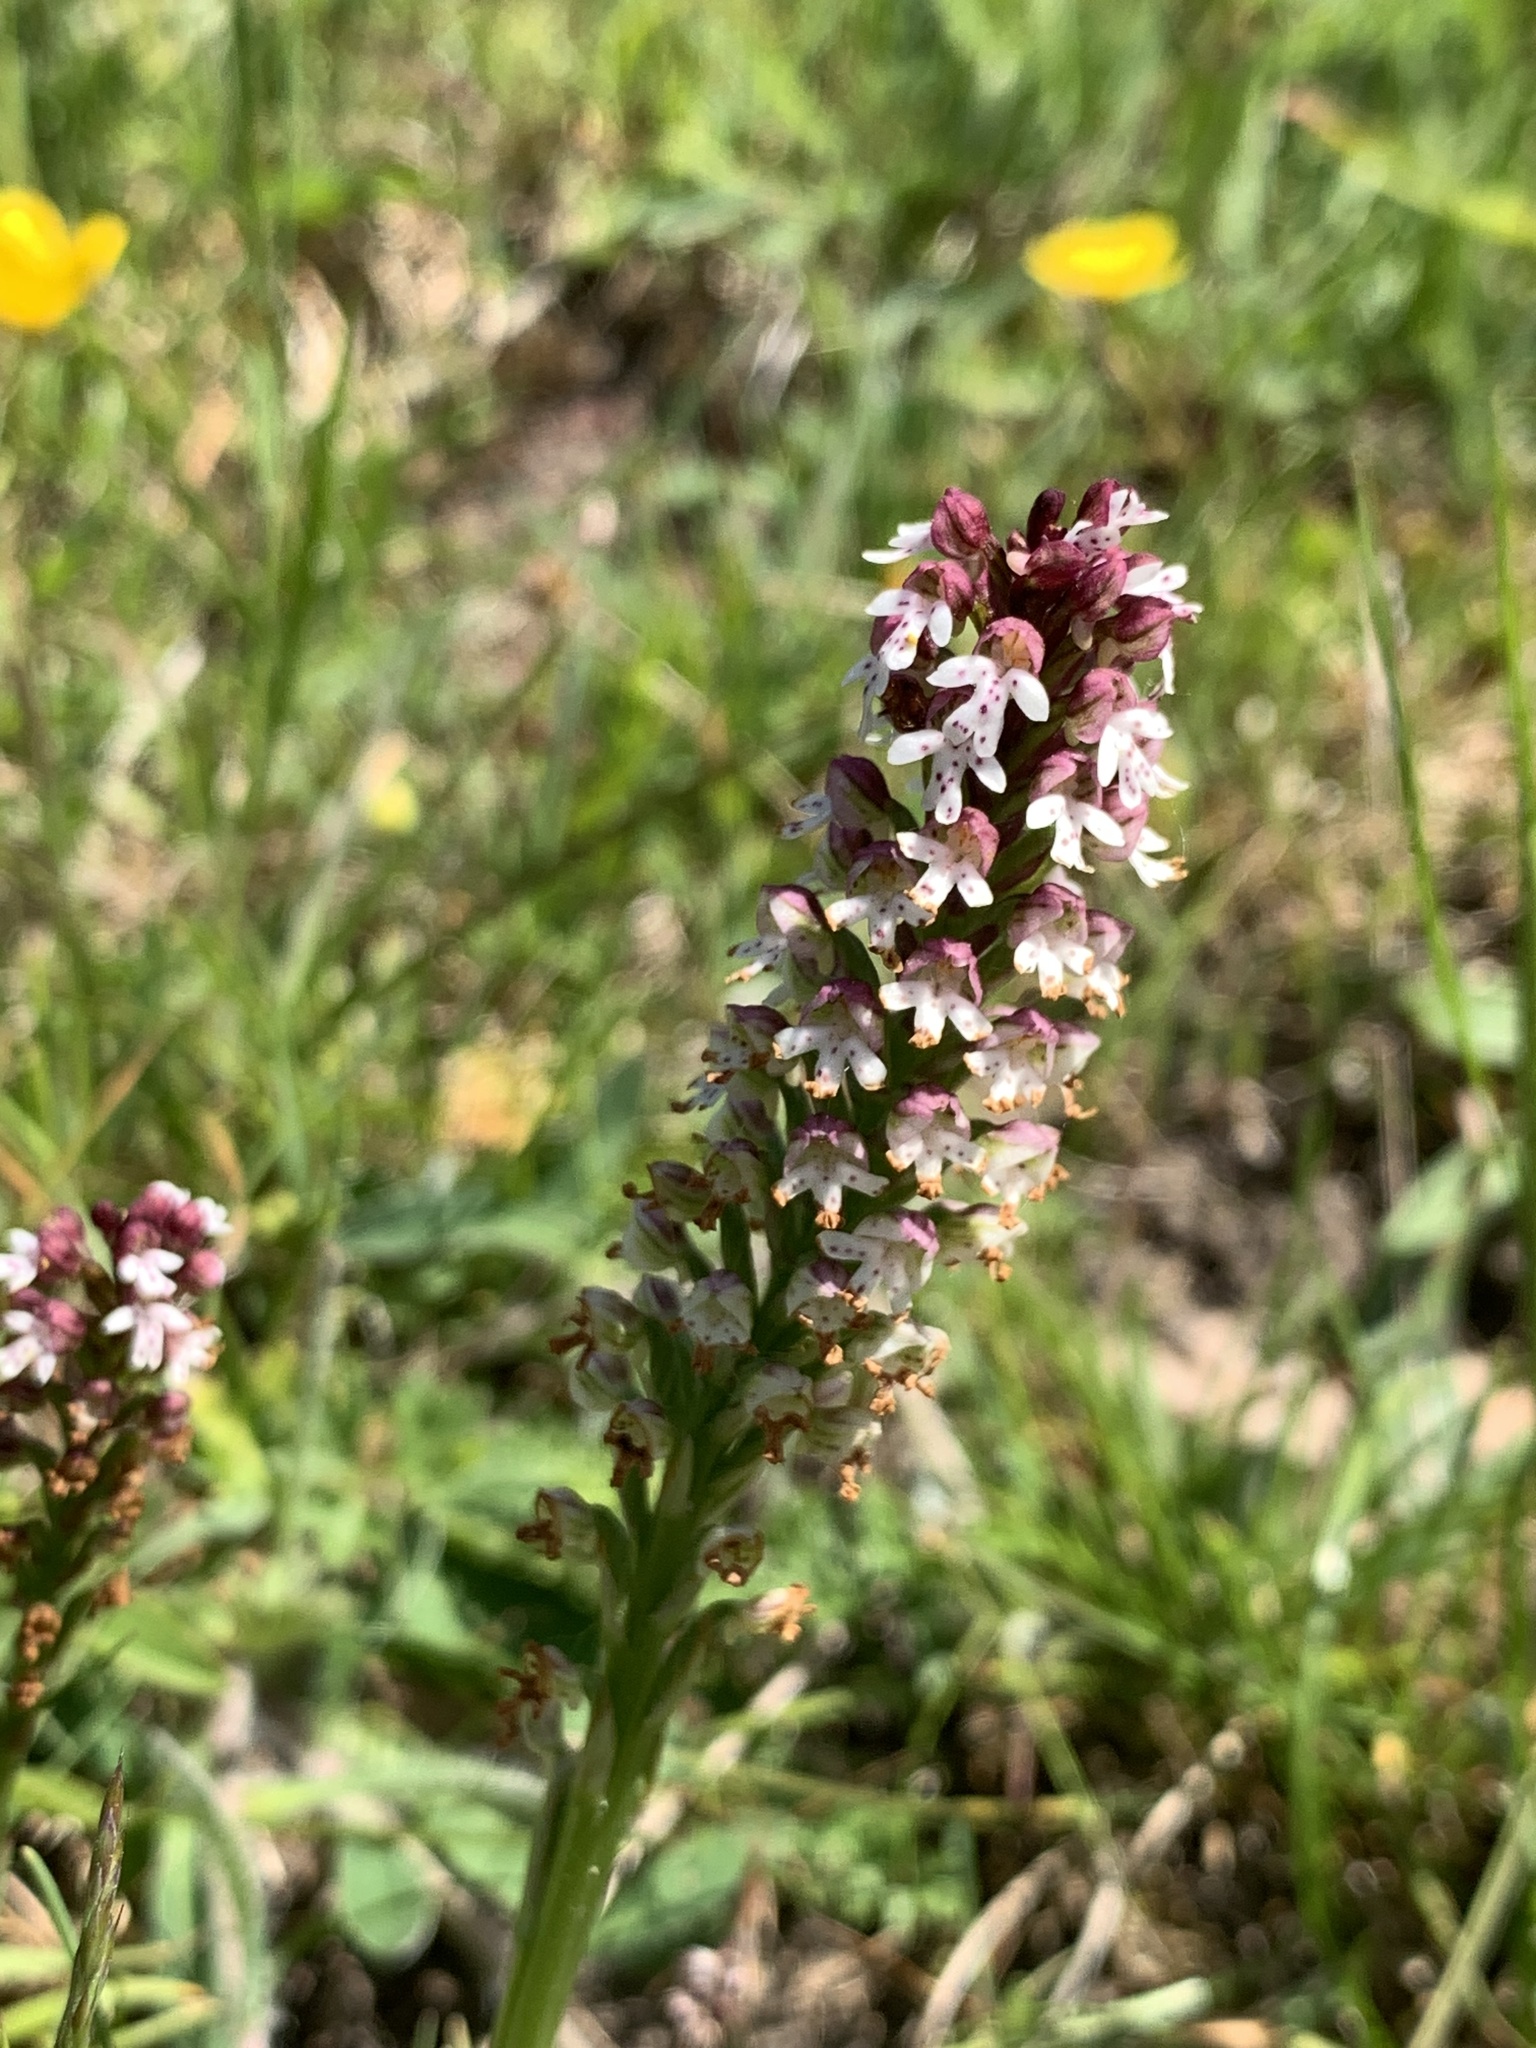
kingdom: Plantae
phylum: Tracheophyta
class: Liliopsida
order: Asparagales
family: Orchidaceae
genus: Neotinea
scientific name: Neotinea ustulata
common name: Burnt orchid
